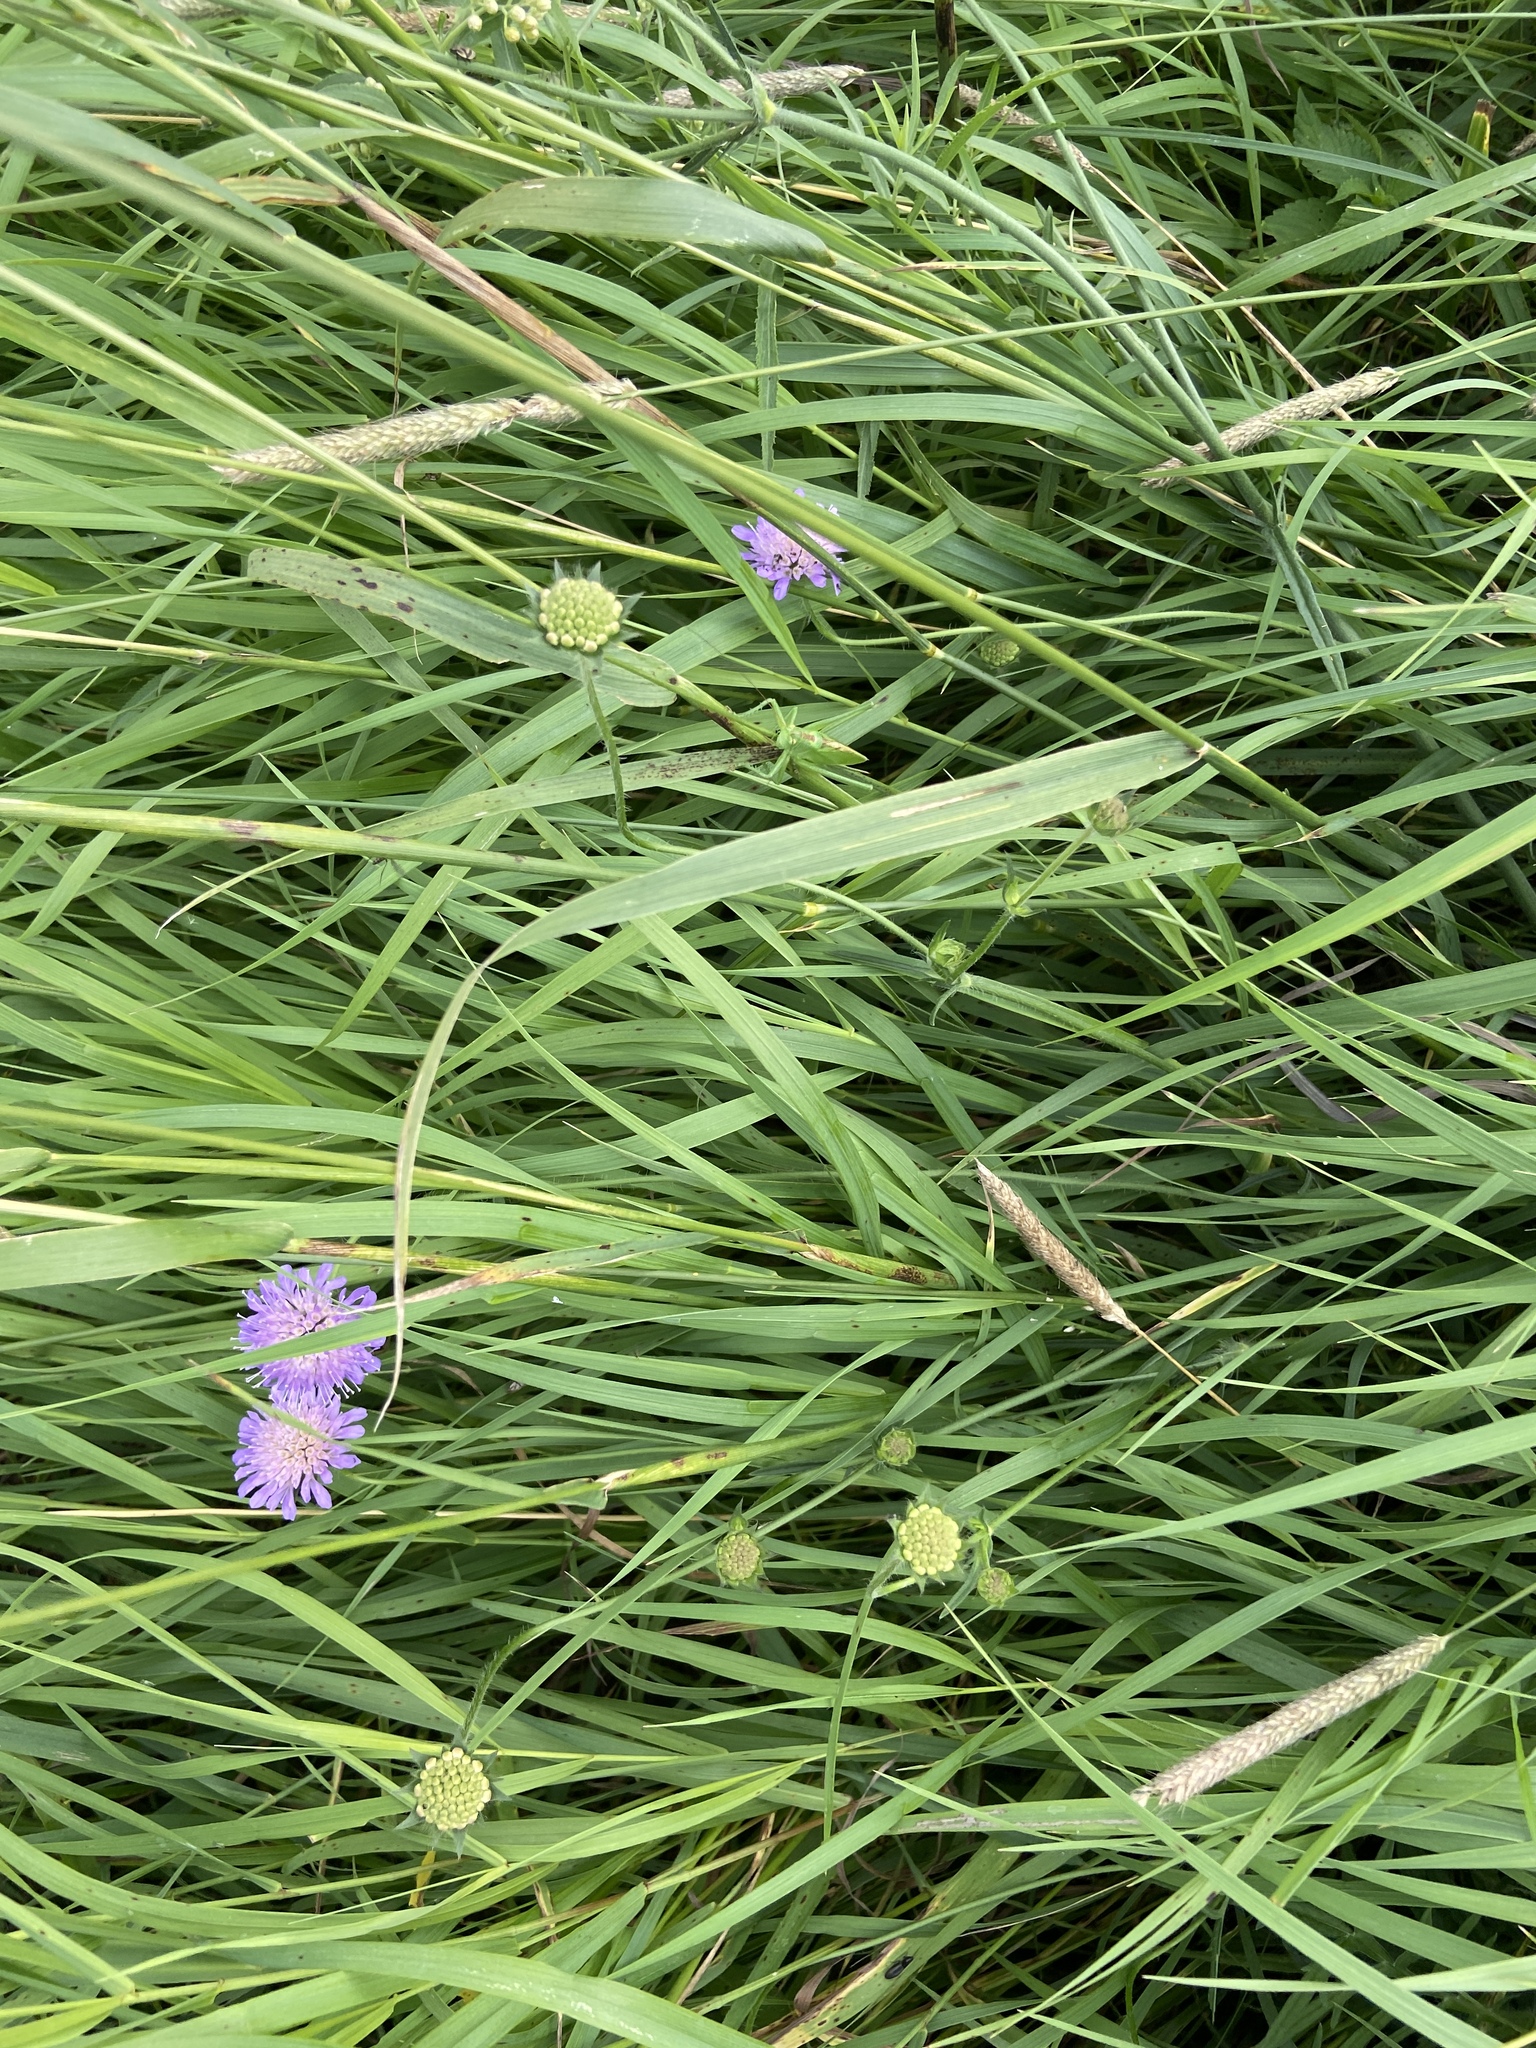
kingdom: Plantae
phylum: Tracheophyta
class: Magnoliopsida
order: Dipsacales
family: Caprifoliaceae
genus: Knautia
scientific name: Knautia arvensis
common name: Field scabiosa
